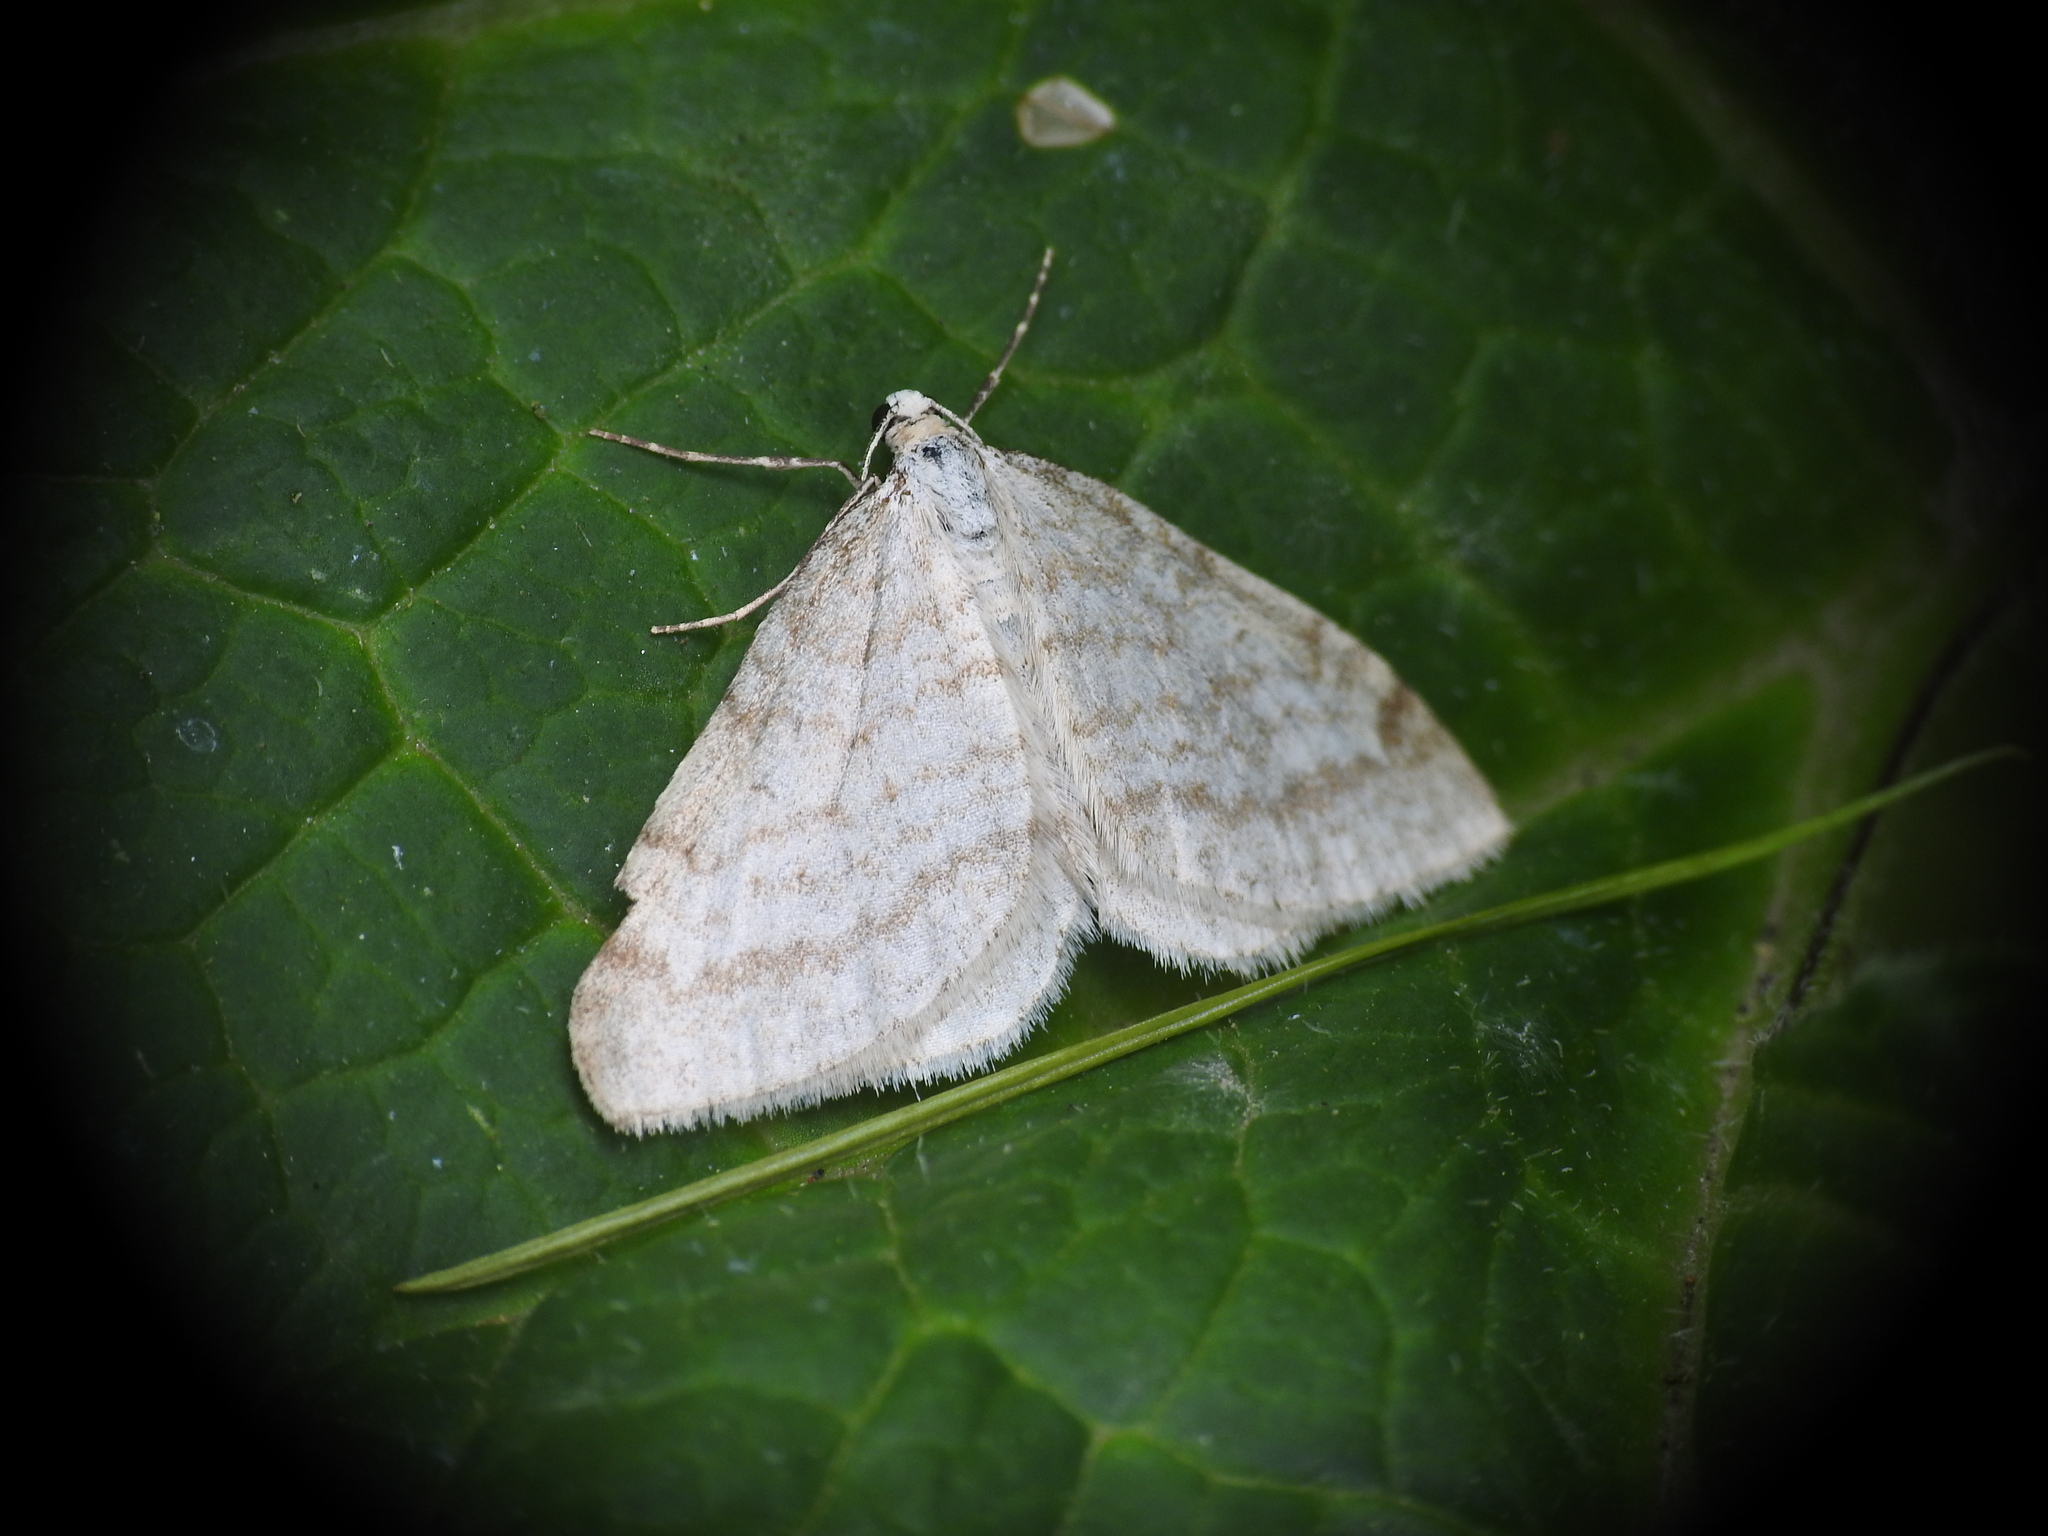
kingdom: Animalia
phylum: Arthropoda
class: Insecta
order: Lepidoptera
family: Geometridae
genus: Perizoma
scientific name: Perizoma verberata
